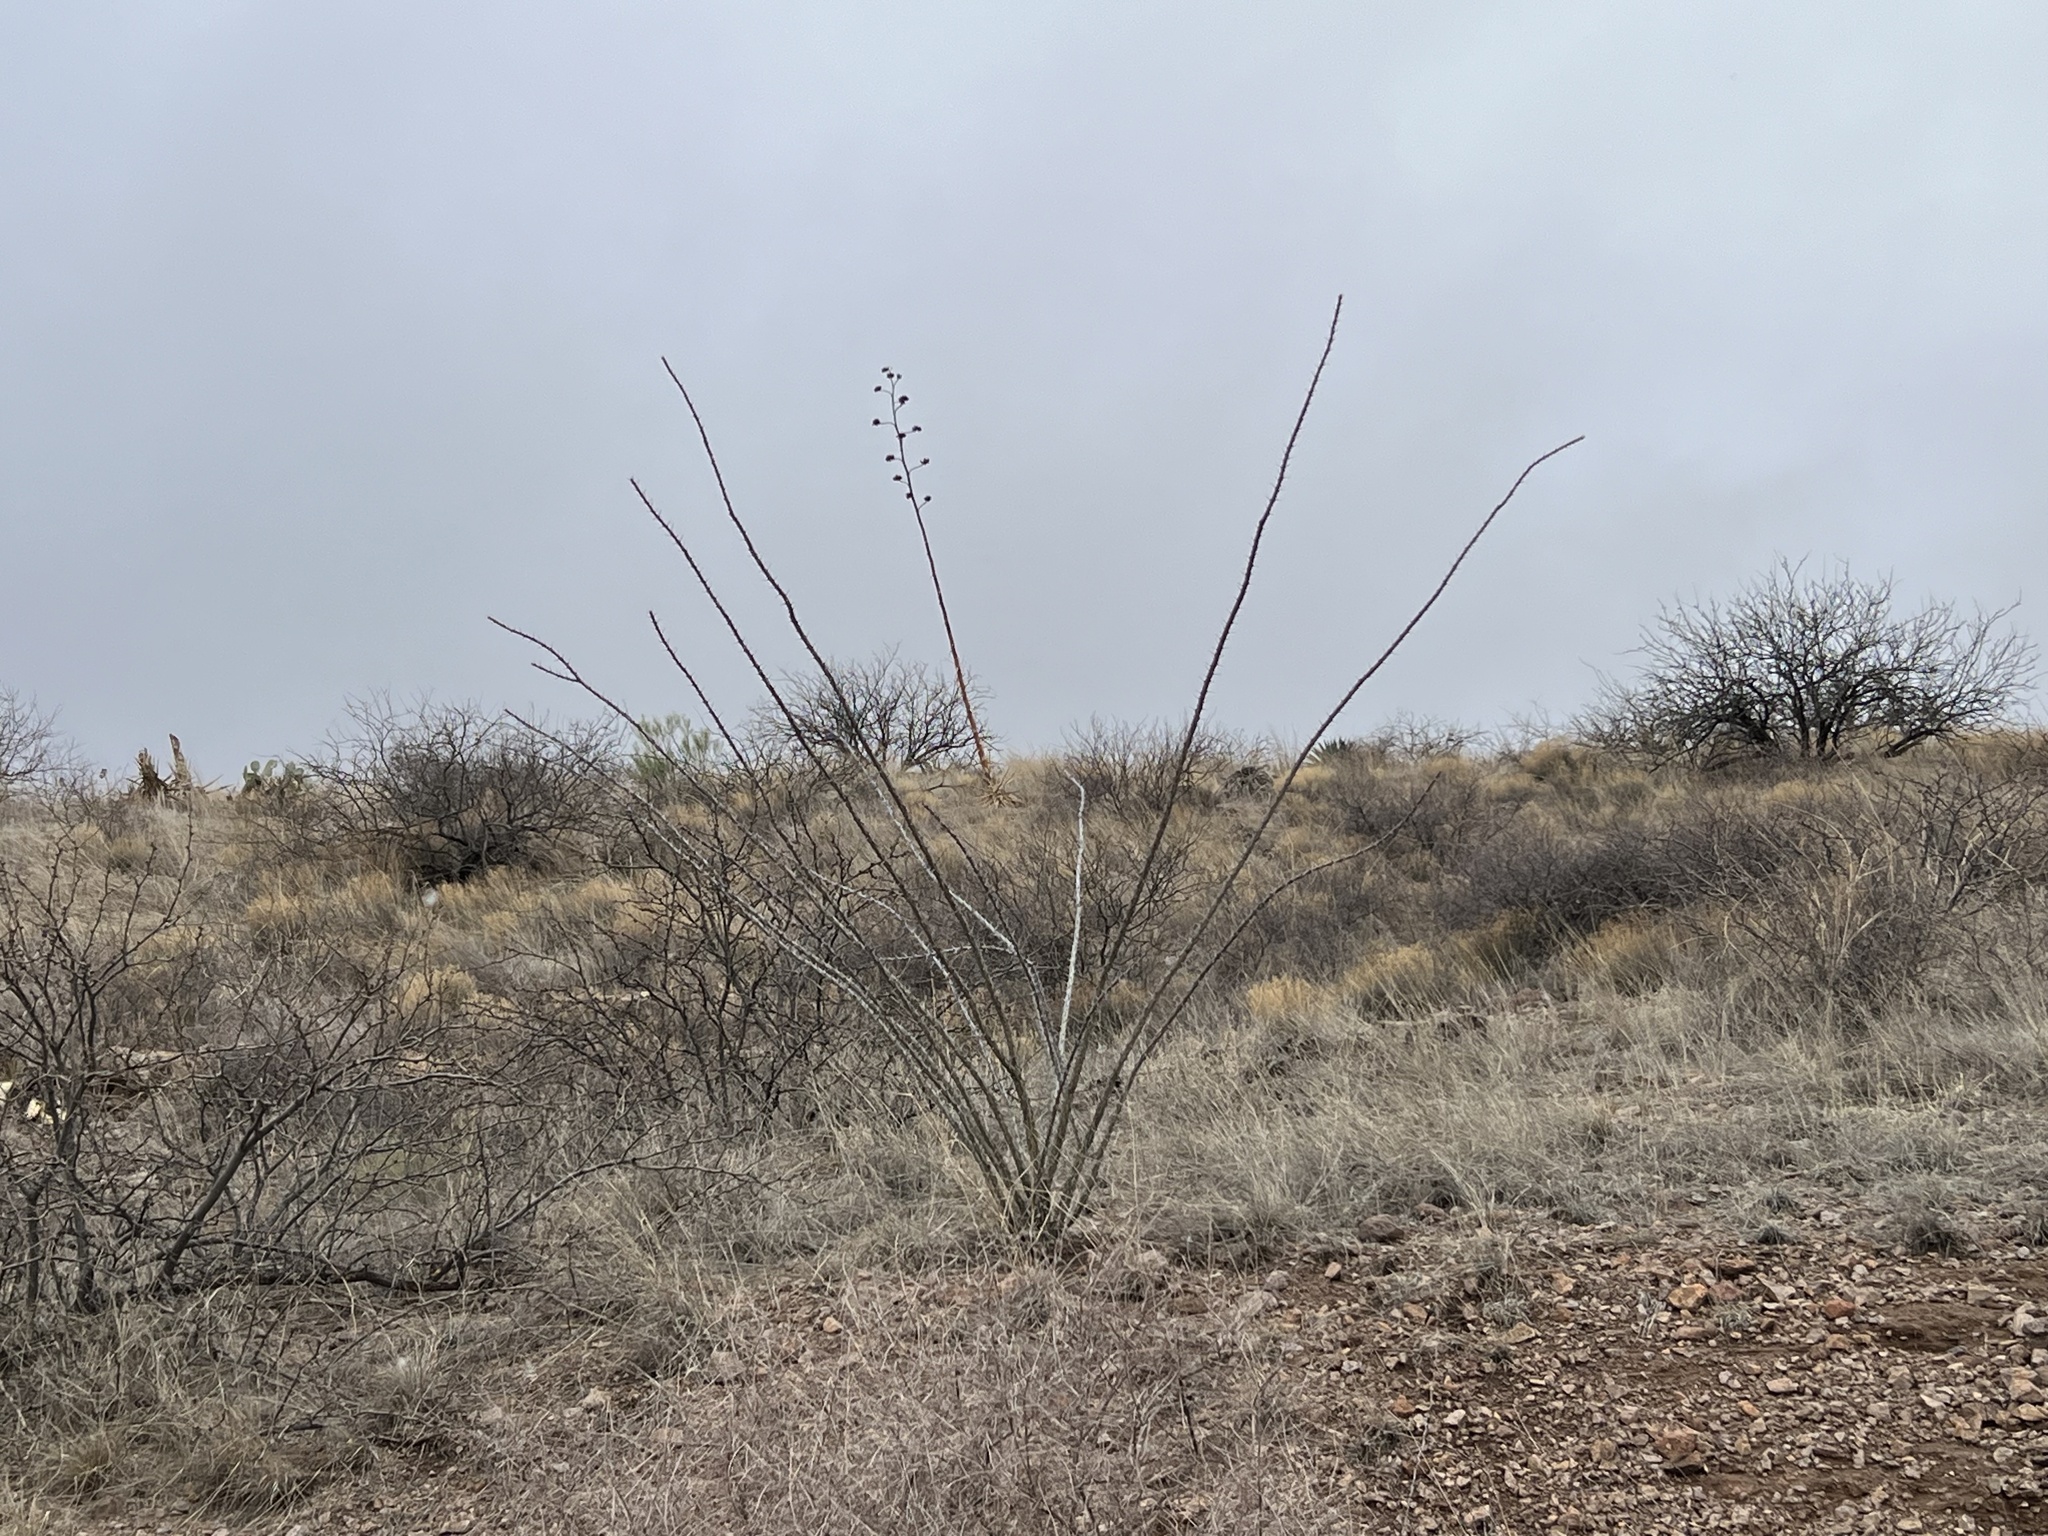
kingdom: Plantae
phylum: Tracheophyta
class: Magnoliopsida
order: Ericales
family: Fouquieriaceae
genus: Fouquieria
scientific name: Fouquieria splendens
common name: Vine-cactus
